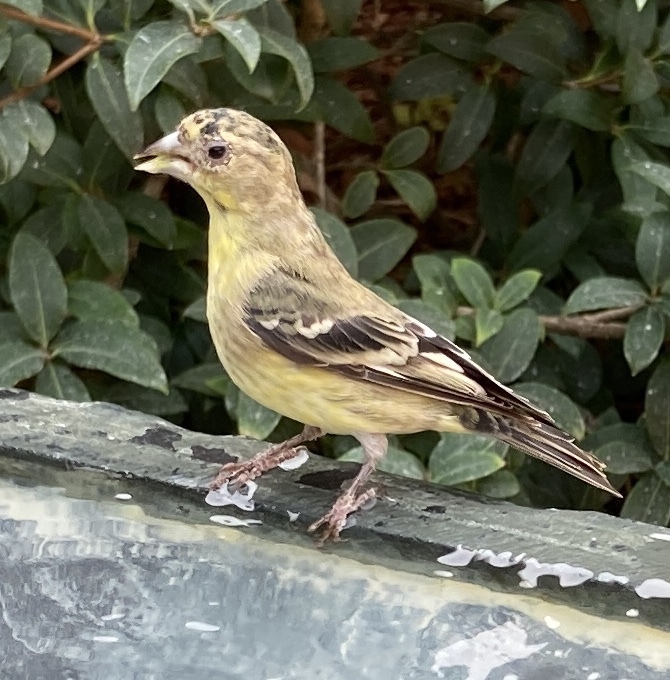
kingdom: Animalia
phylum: Chordata
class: Aves
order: Passeriformes
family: Fringillidae
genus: Spinus
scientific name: Spinus psaltria
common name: Lesser goldfinch
